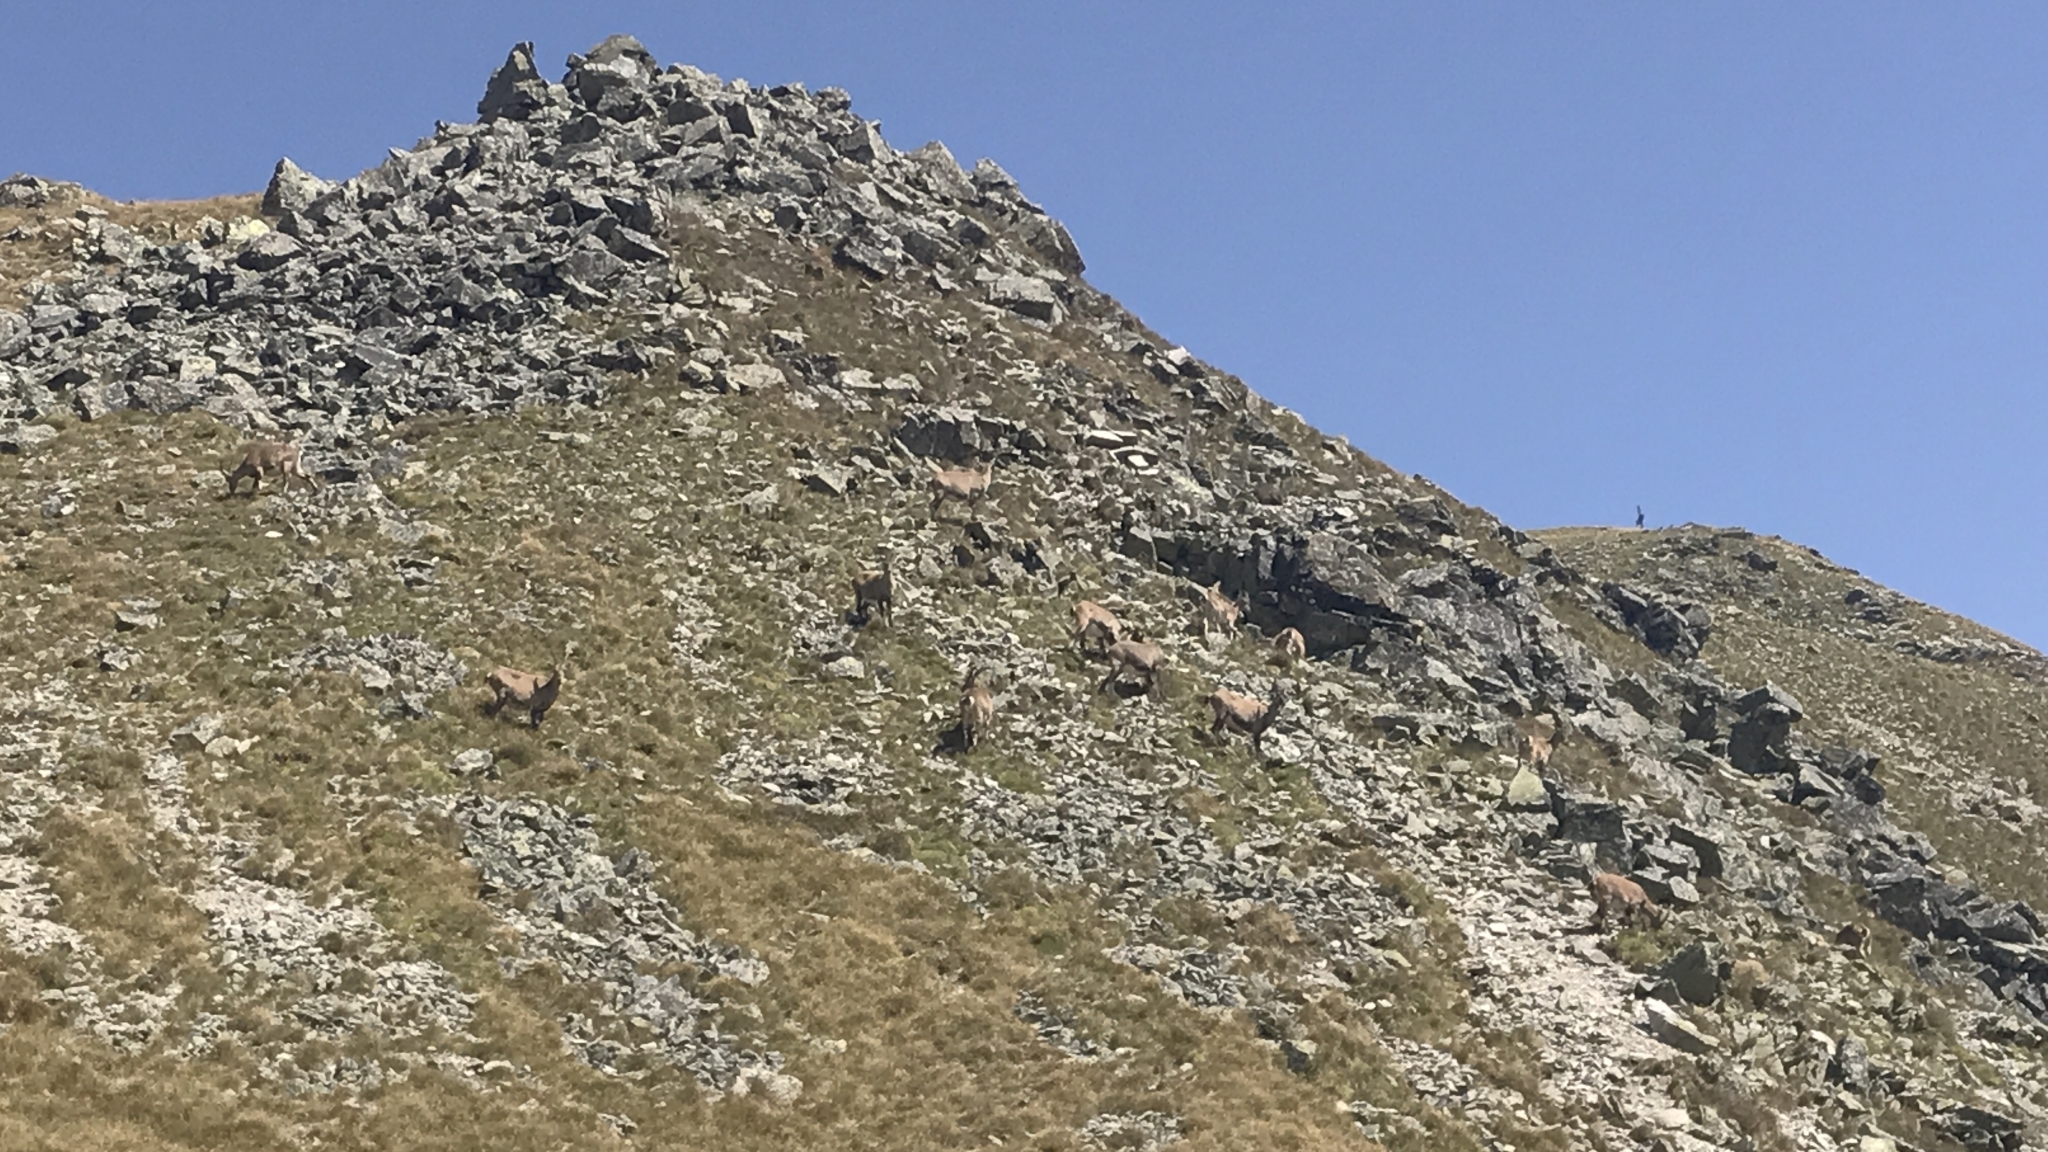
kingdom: Animalia
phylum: Chordata
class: Mammalia
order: Artiodactyla
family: Bovidae
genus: Capra
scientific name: Capra ibex
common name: Alpine ibex
